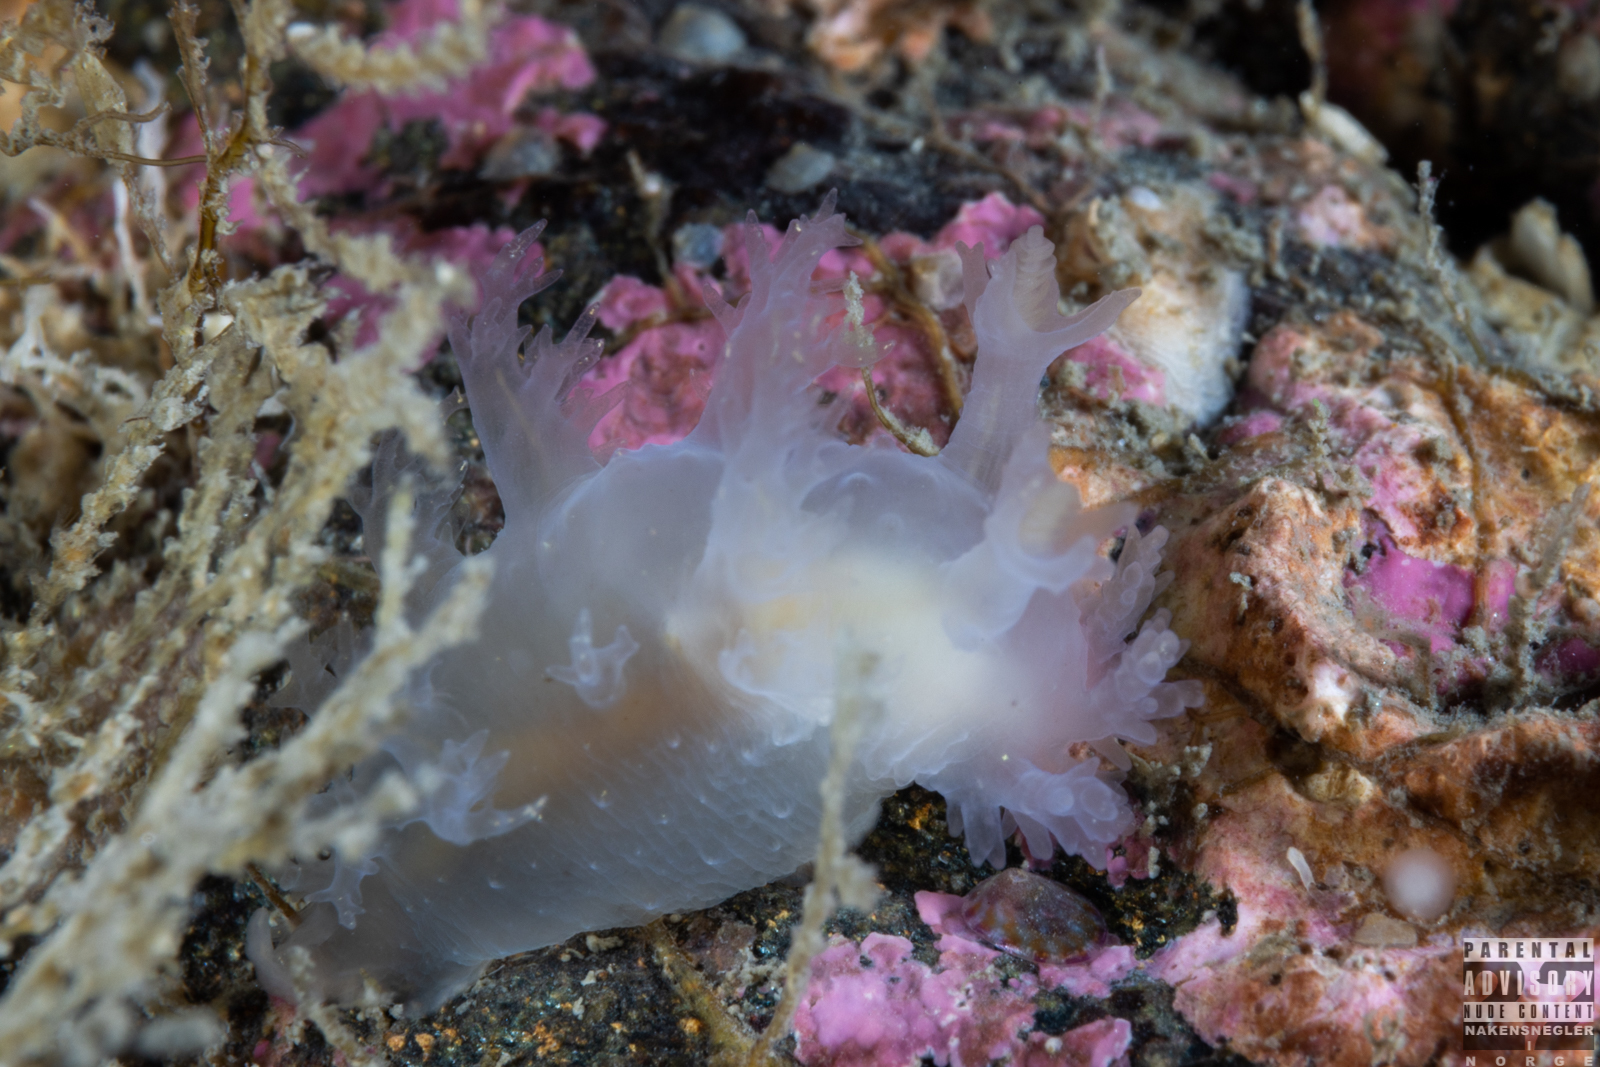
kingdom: Animalia
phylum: Mollusca
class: Gastropoda
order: Nudibranchia
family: Dendronotidae
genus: Dendronotus
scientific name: Dendronotus lacteus
